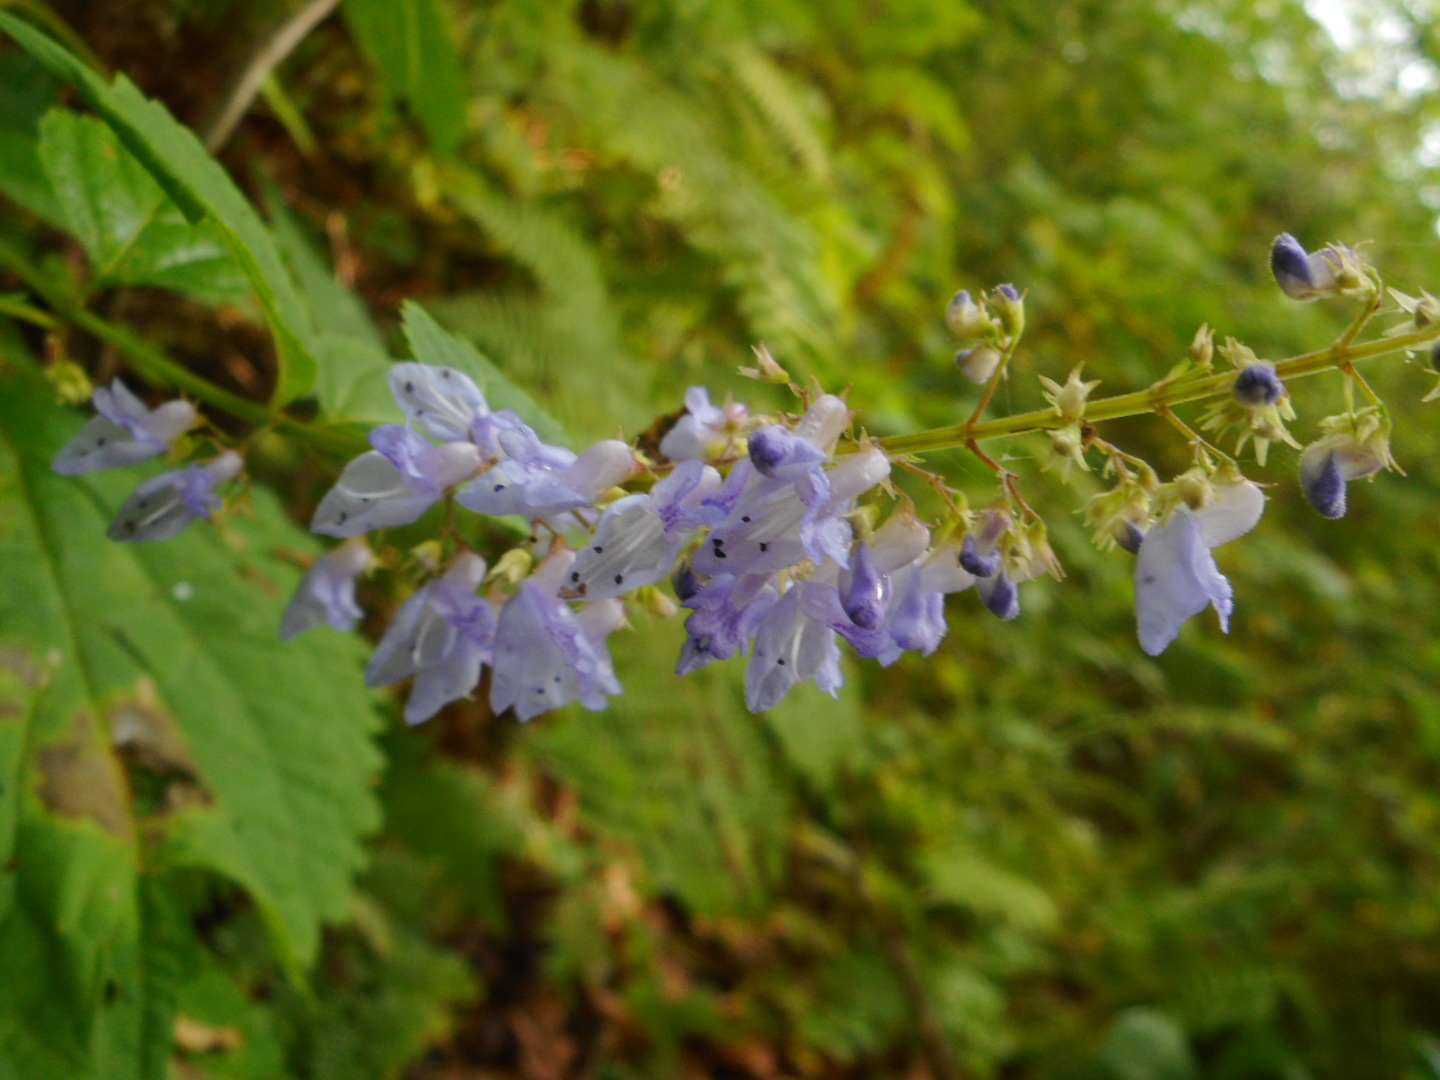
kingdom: Plantae
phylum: Tracheophyta
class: Magnoliopsida
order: Lamiales
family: Lamiaceae
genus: Isodon
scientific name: Isodon excisus
